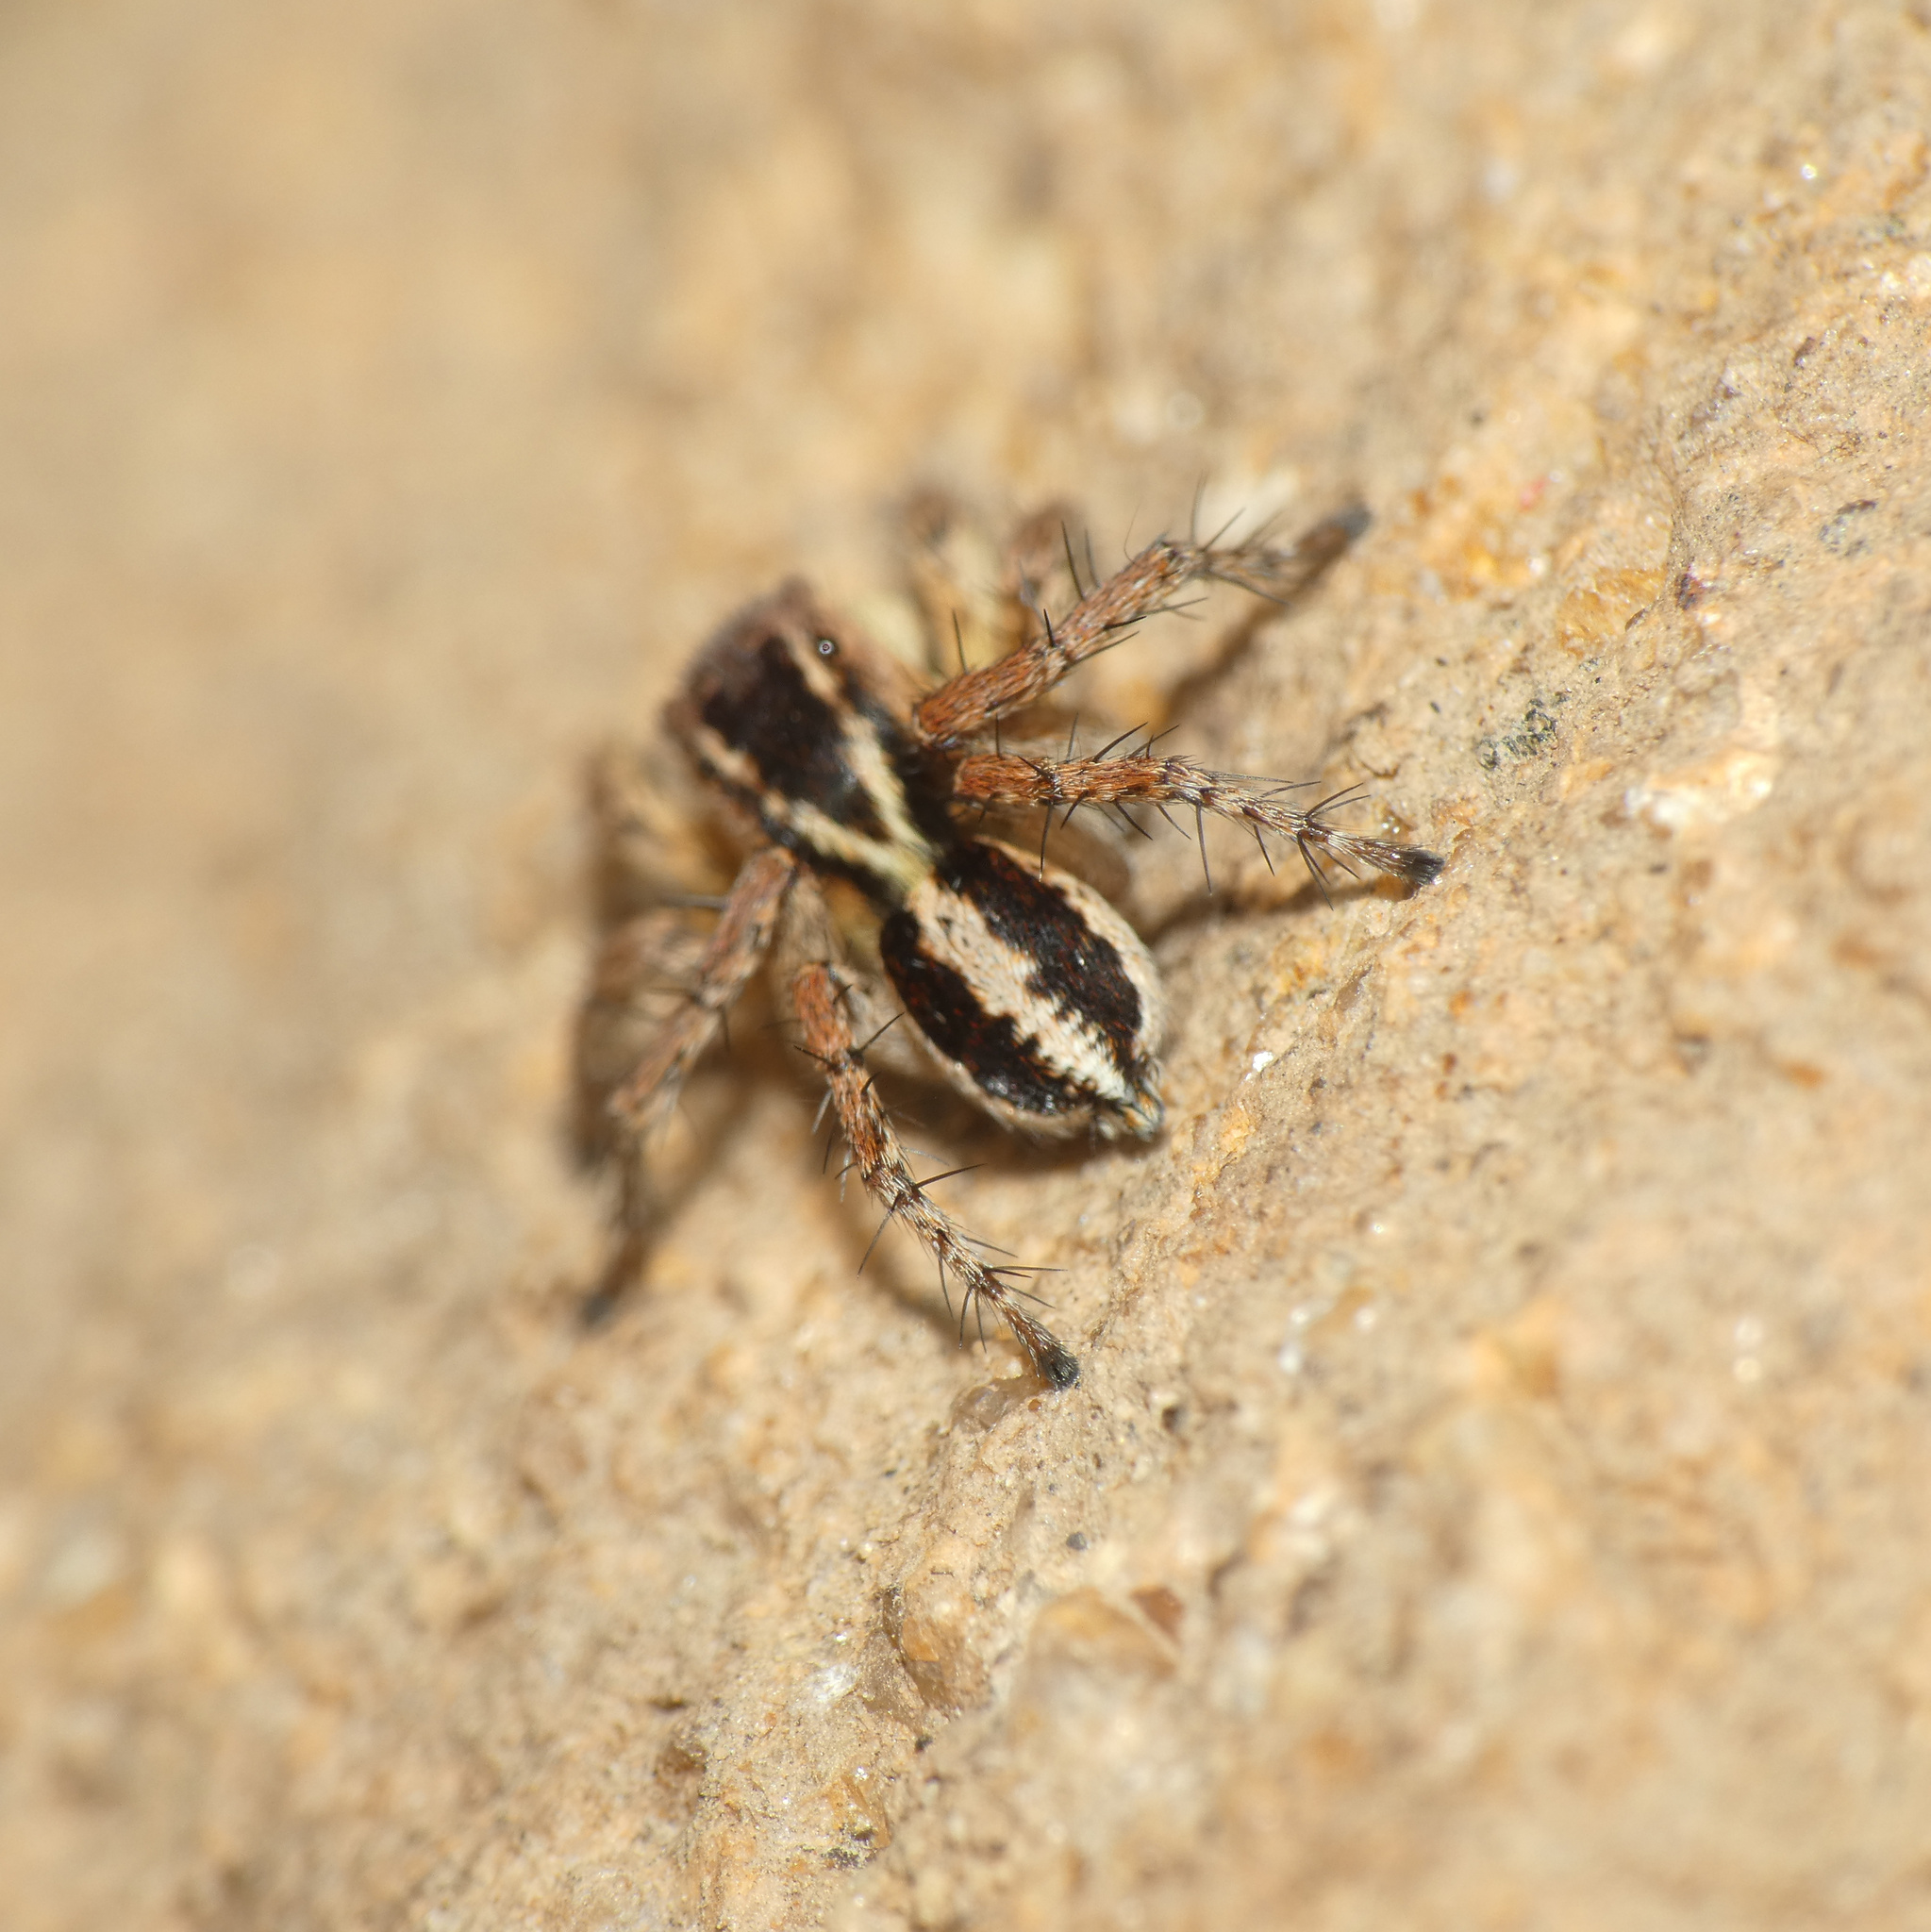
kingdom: Animalia
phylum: Arthropoda
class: Arachnida
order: Araneae
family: Salticidae
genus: Phlegra
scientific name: Phlegra karoo
